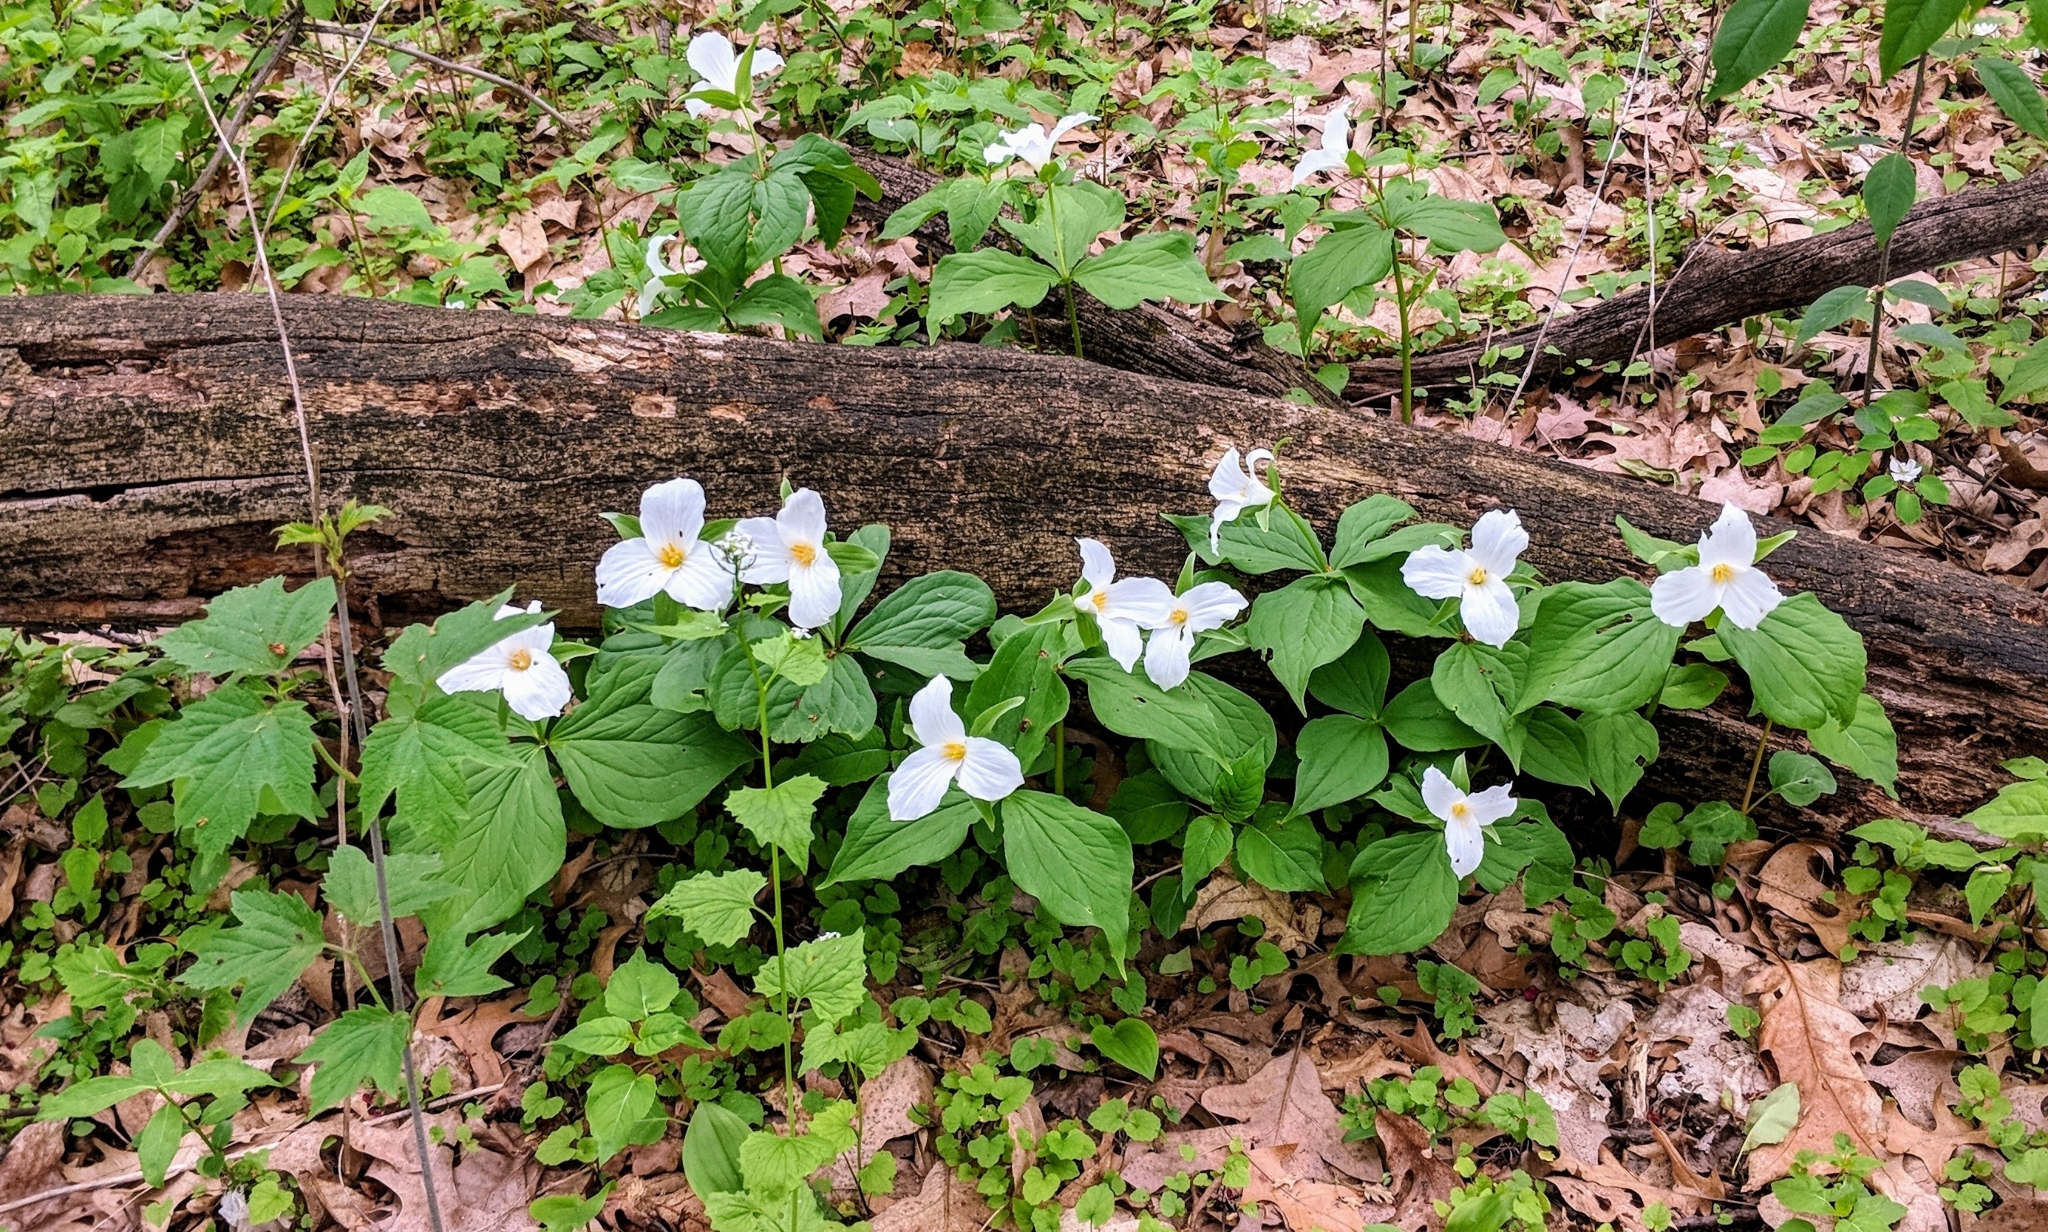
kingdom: Plantae
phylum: Tracheophyta
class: Liliopsida
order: Liliales
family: Melanthiaceae
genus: Trillium
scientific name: Trillium grandiflorum
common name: Great white trillium
